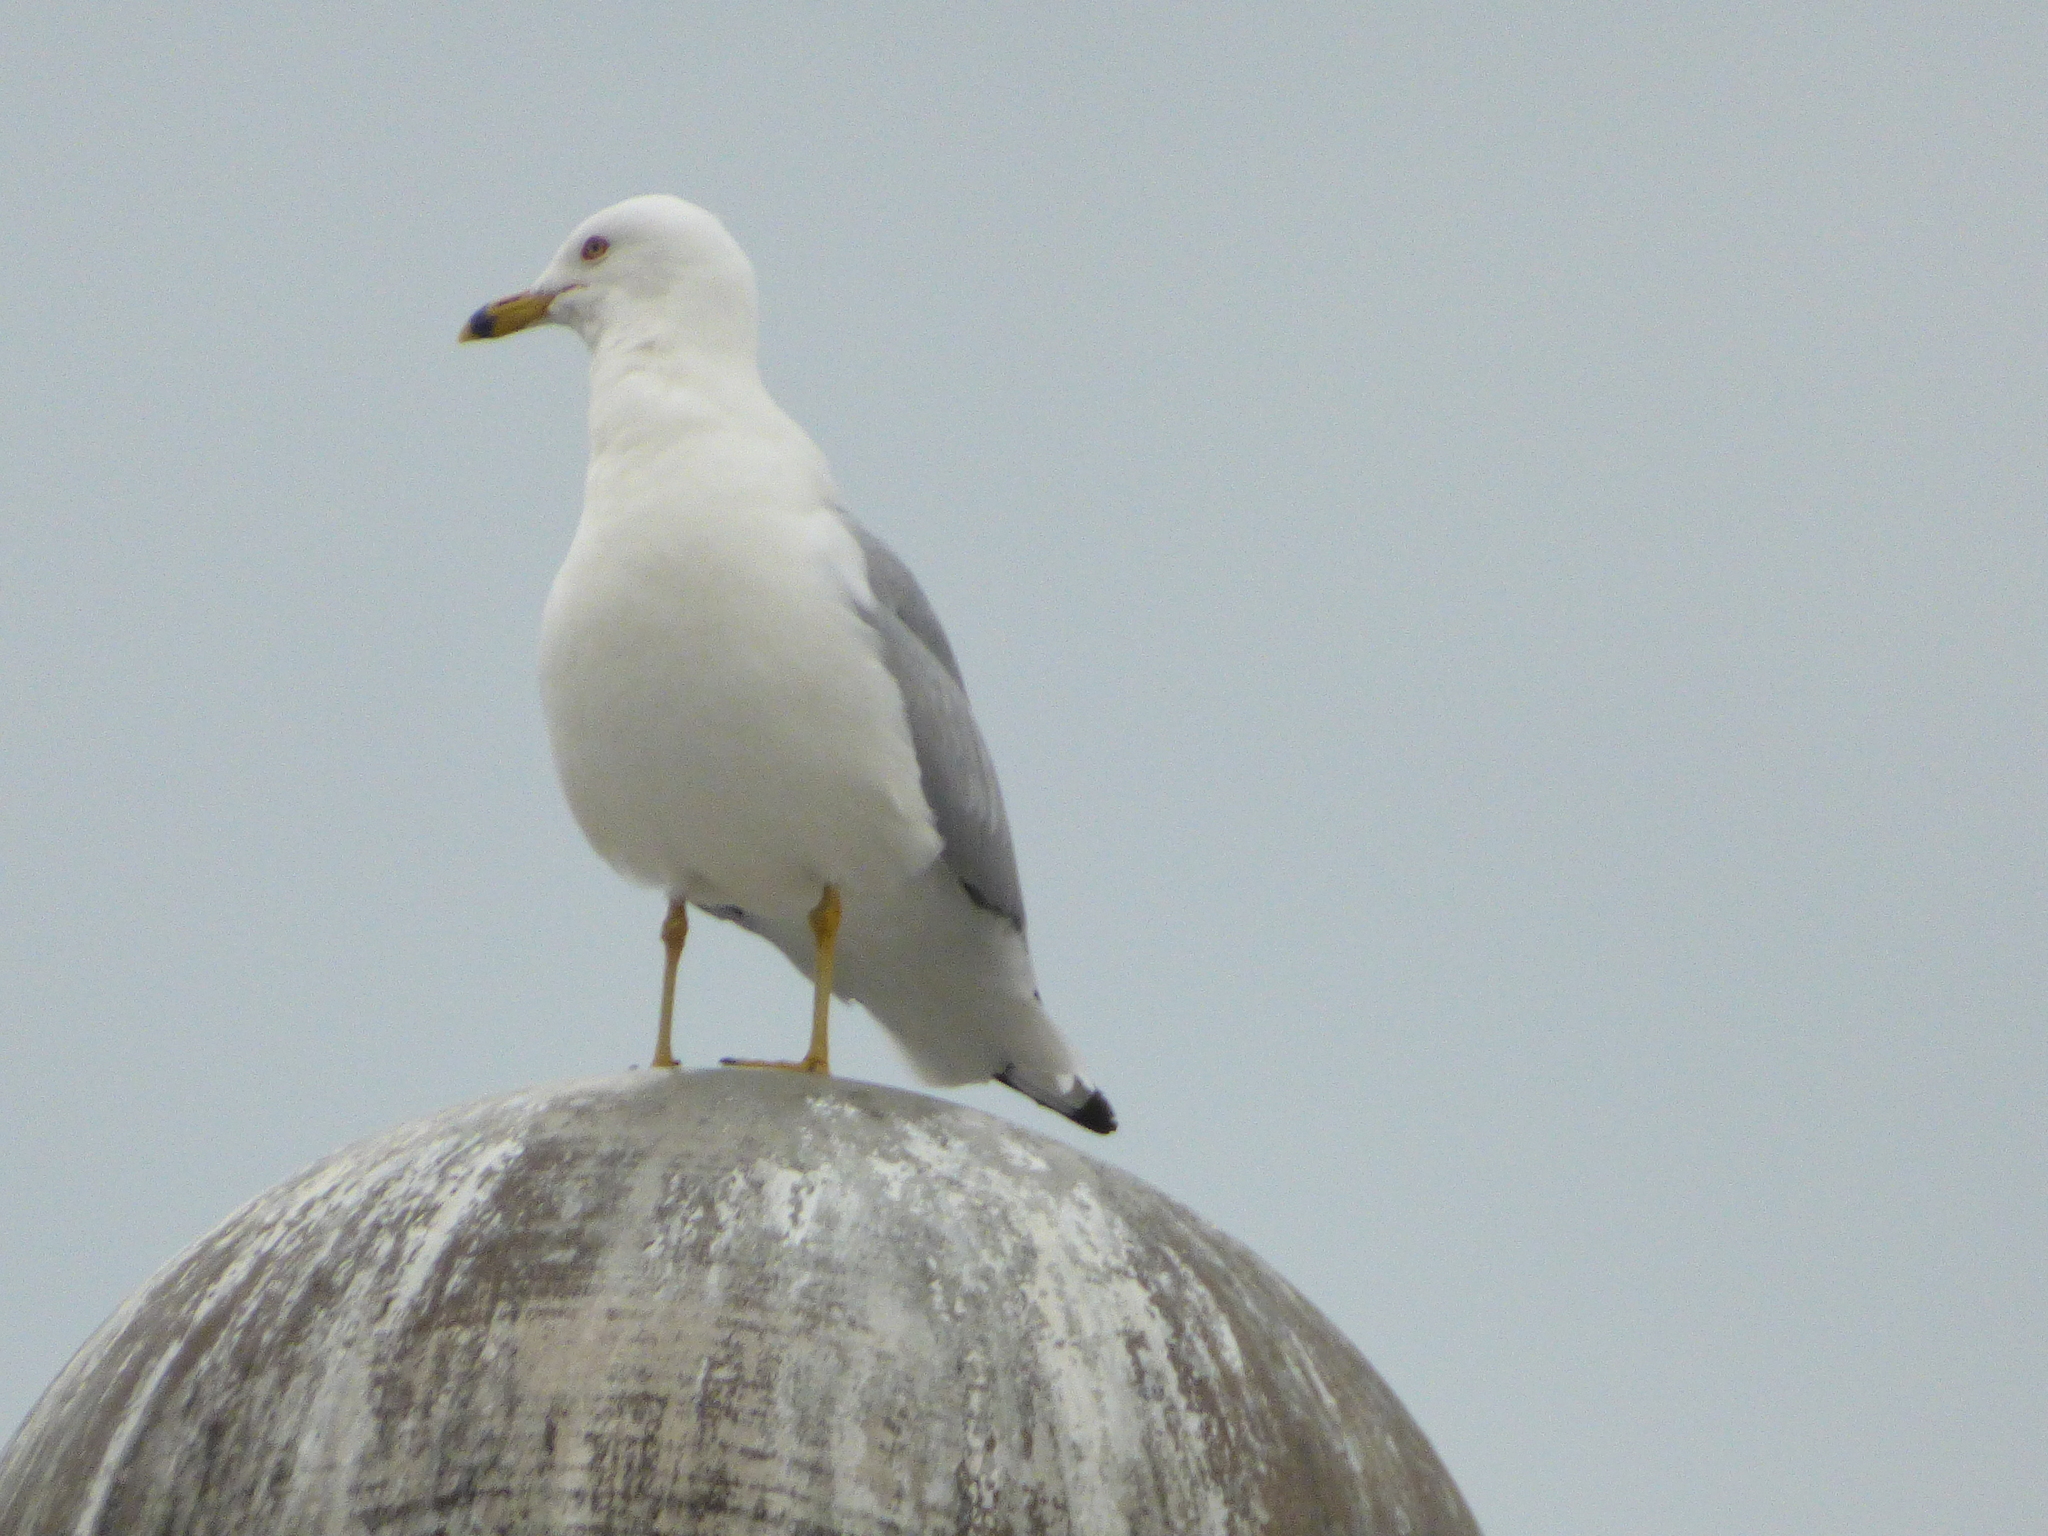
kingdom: Animalia
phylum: Chordata
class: Aves
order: Charadriiformes
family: Laridae
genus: Larus
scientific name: Larus delawarensis
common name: Ring-billed gull
